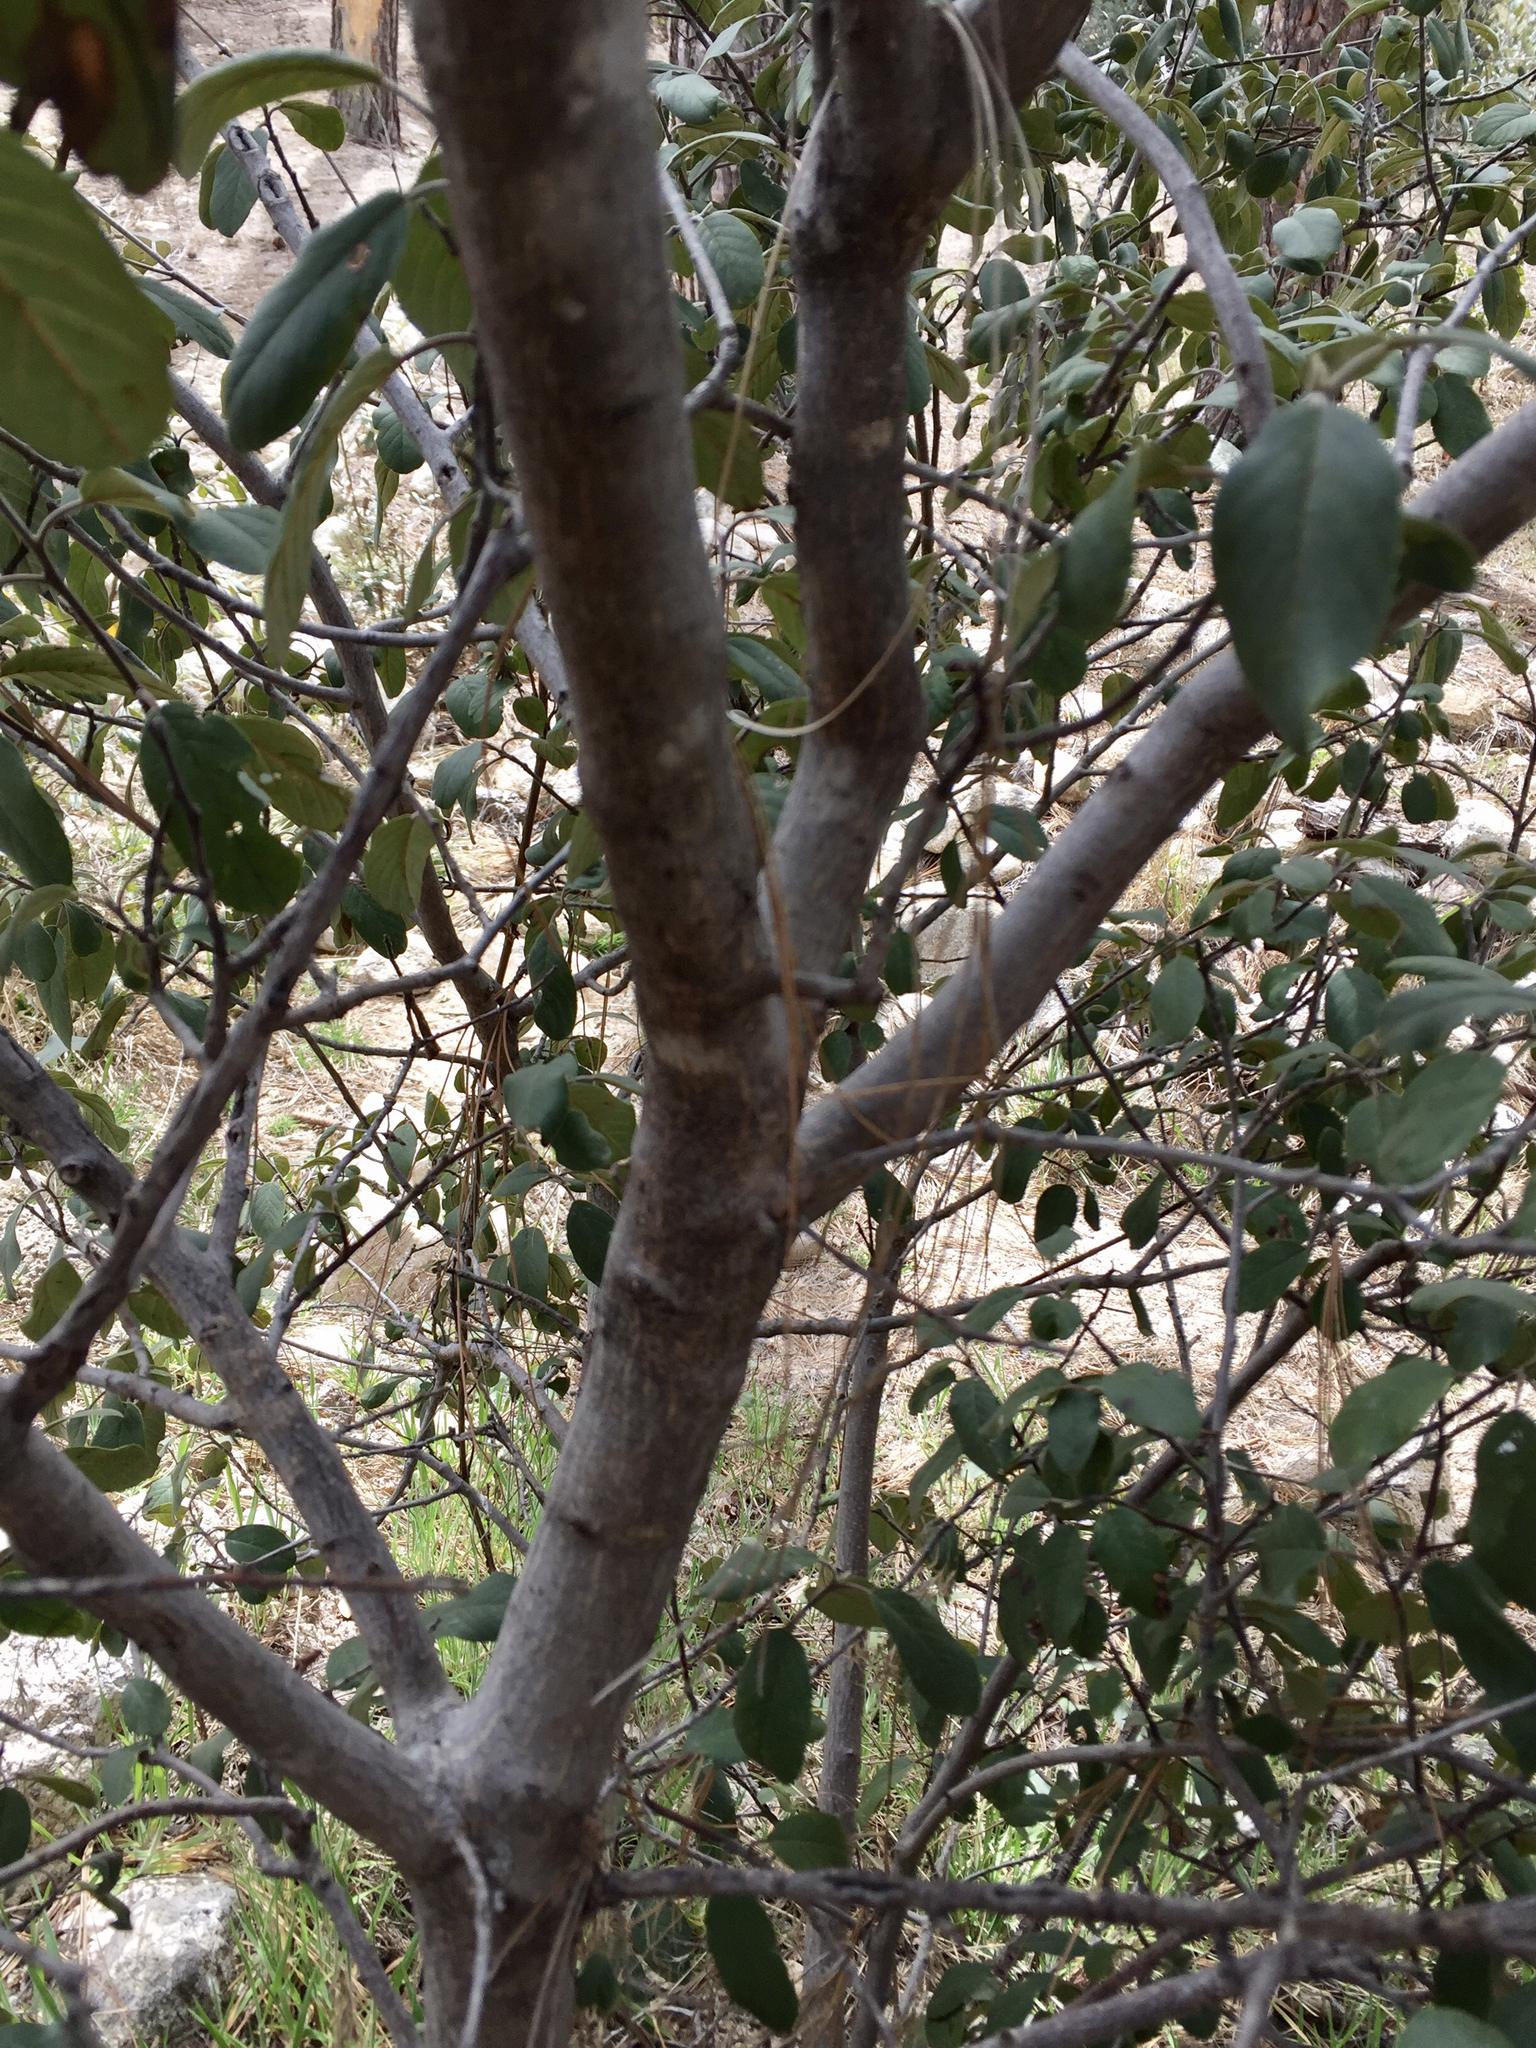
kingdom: Plantae
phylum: Tracheophyta
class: Magnoliopsida
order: Rosales
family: Rhamnaceae
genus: Frangula
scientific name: Frangula californica
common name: California buckthorn
